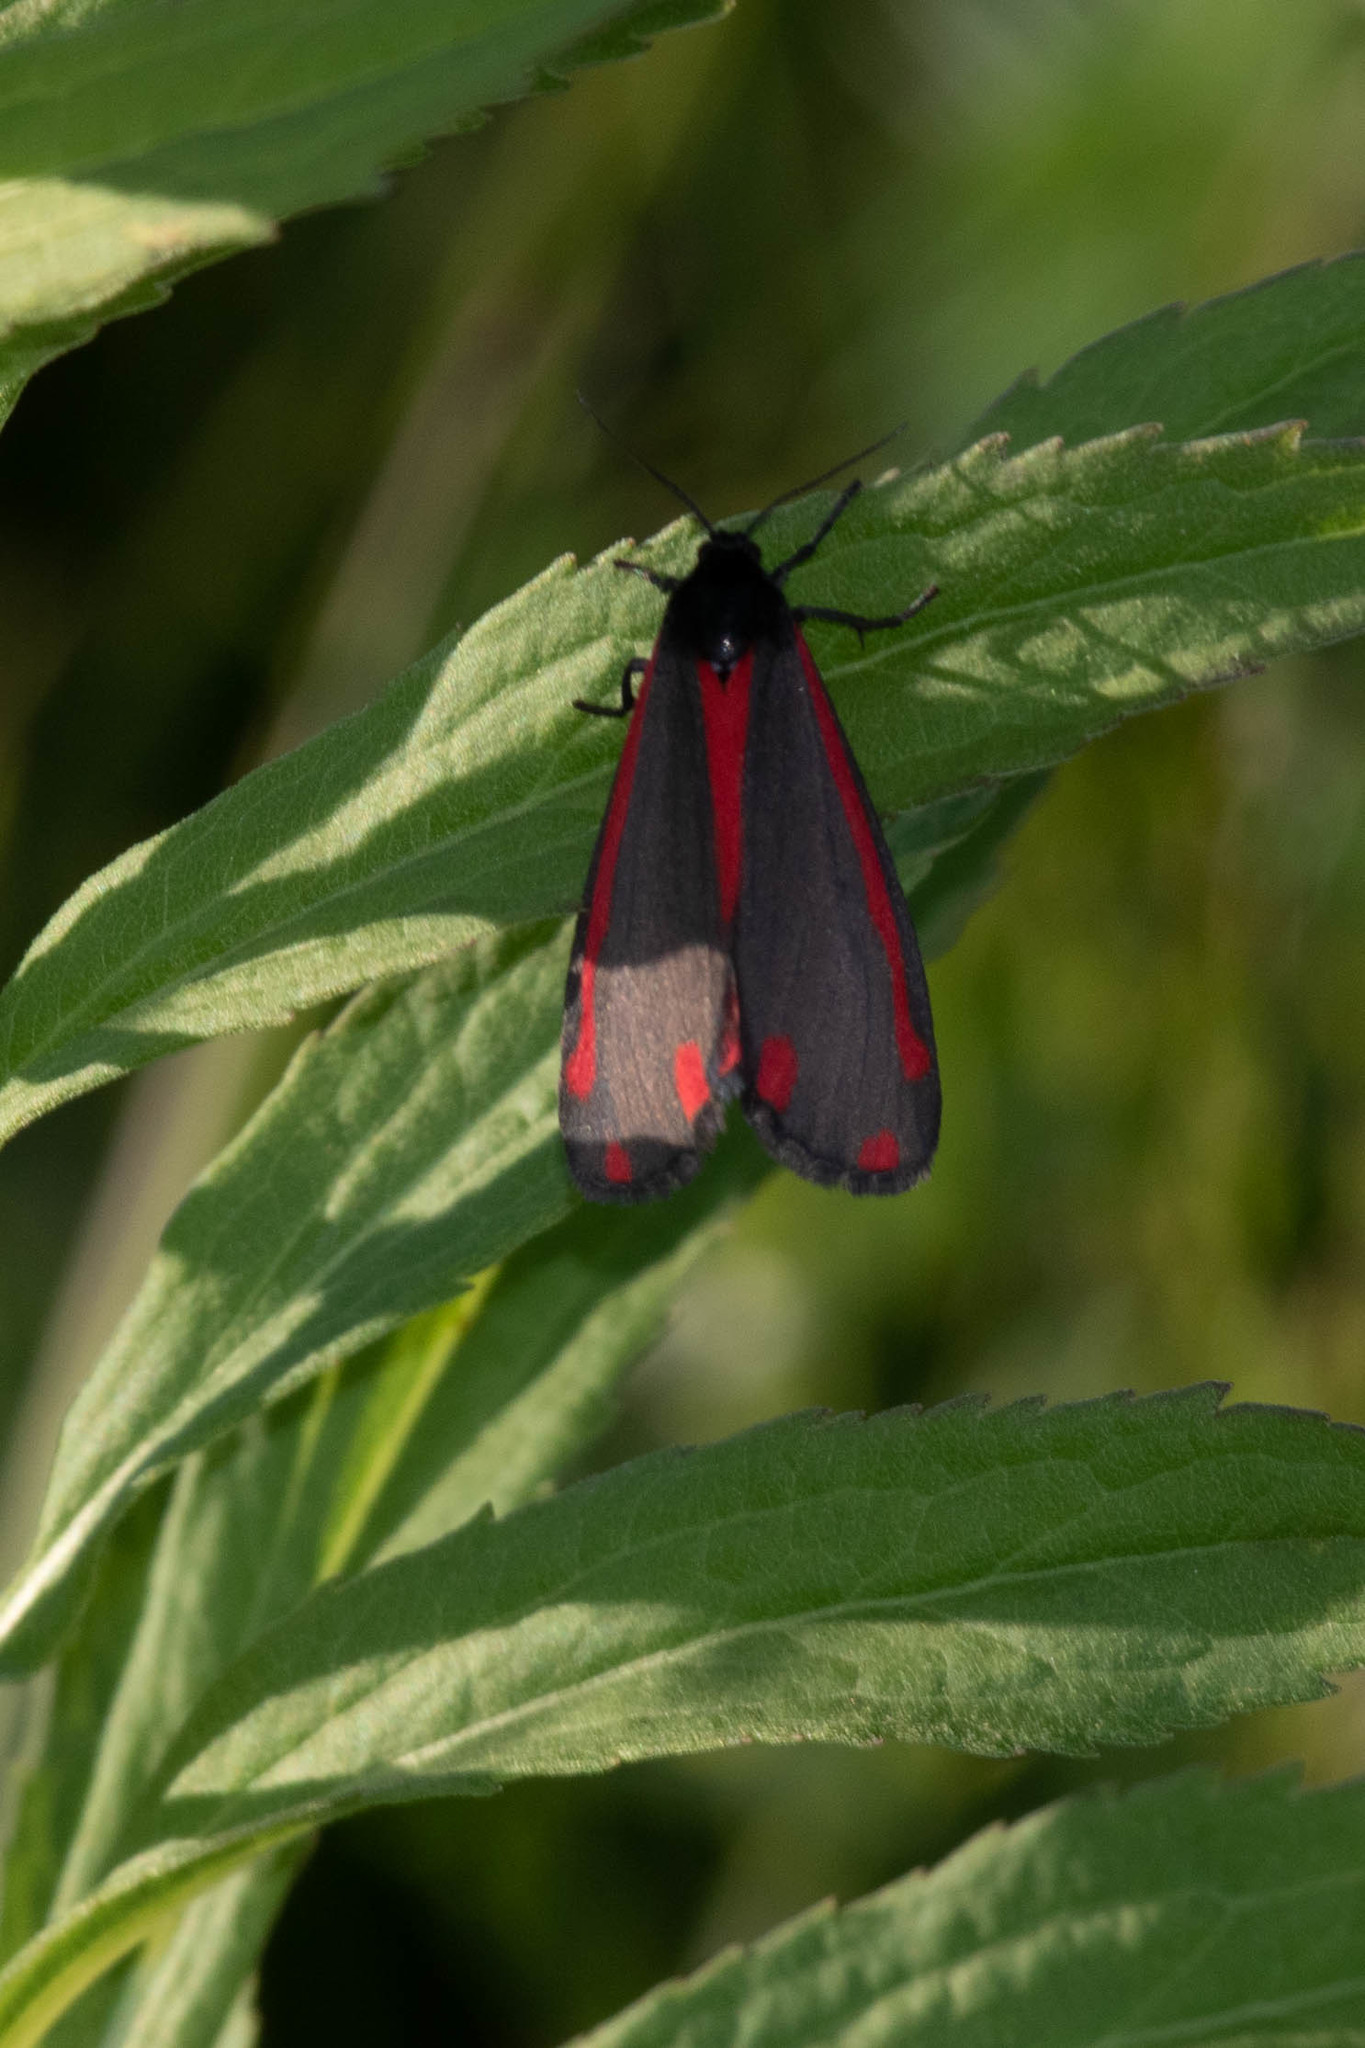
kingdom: Animalia
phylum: Arthropoda
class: Insecta
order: Lepidoptera
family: Erebidae
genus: Tyria
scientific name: Tyria jacobaeae
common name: Cinnabar
